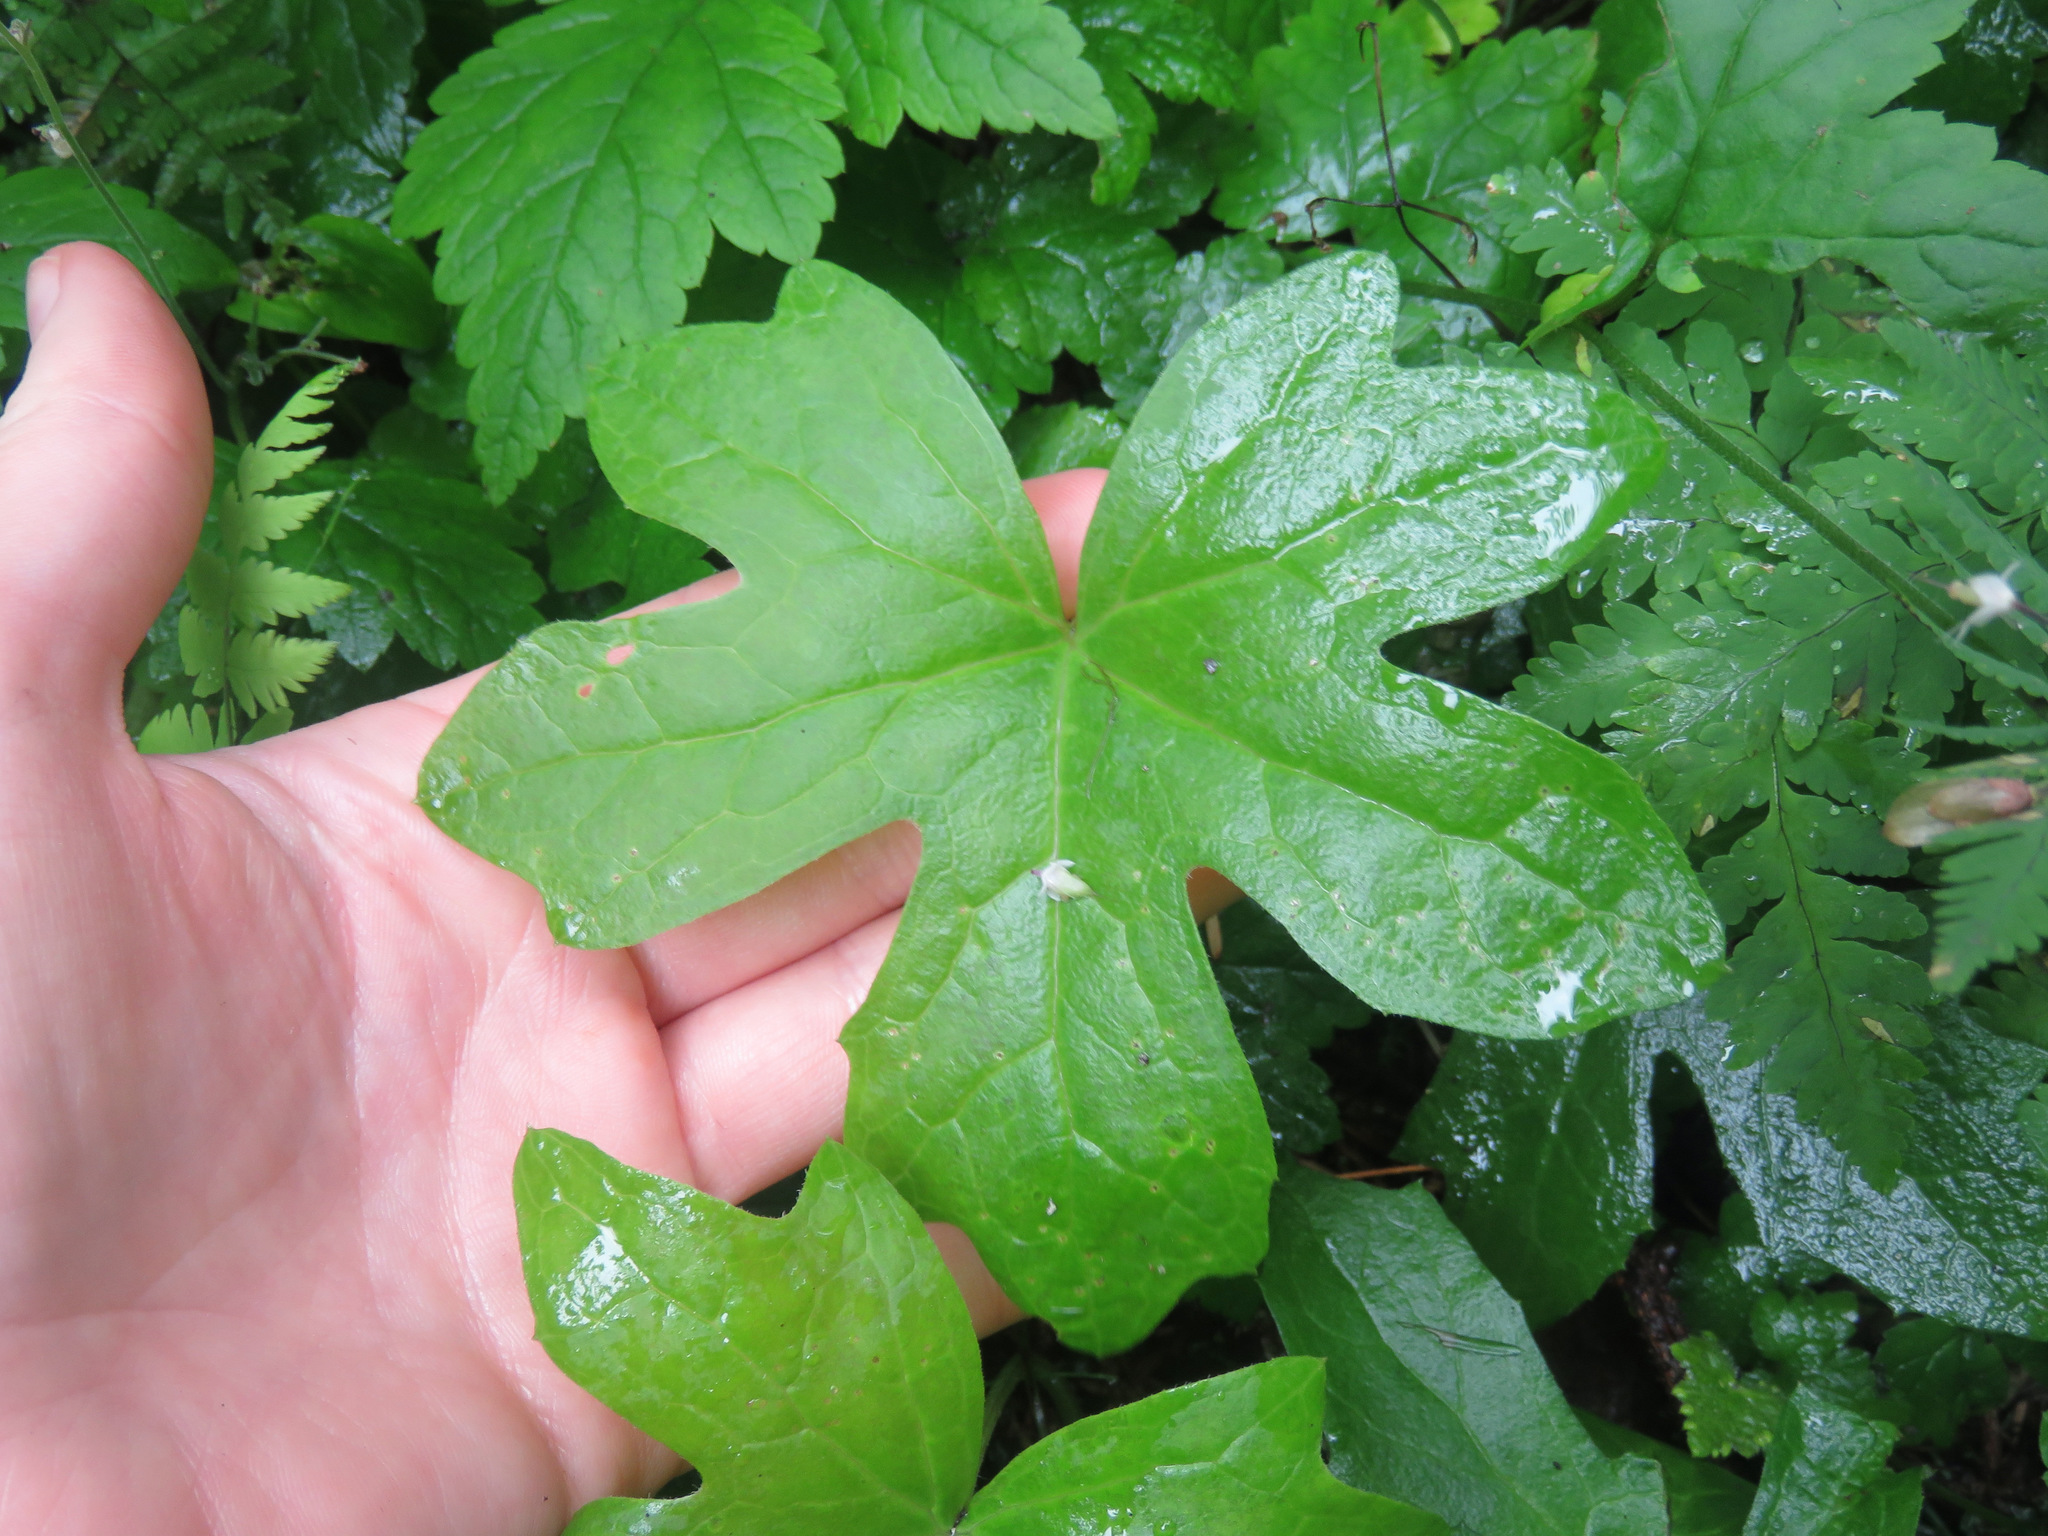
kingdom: Plantae
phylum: Tracheophyta
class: Magnoliopsida
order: Asterales
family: Asteraceae
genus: Petasites
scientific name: Petasites frigidus
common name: Arctic butterbur
